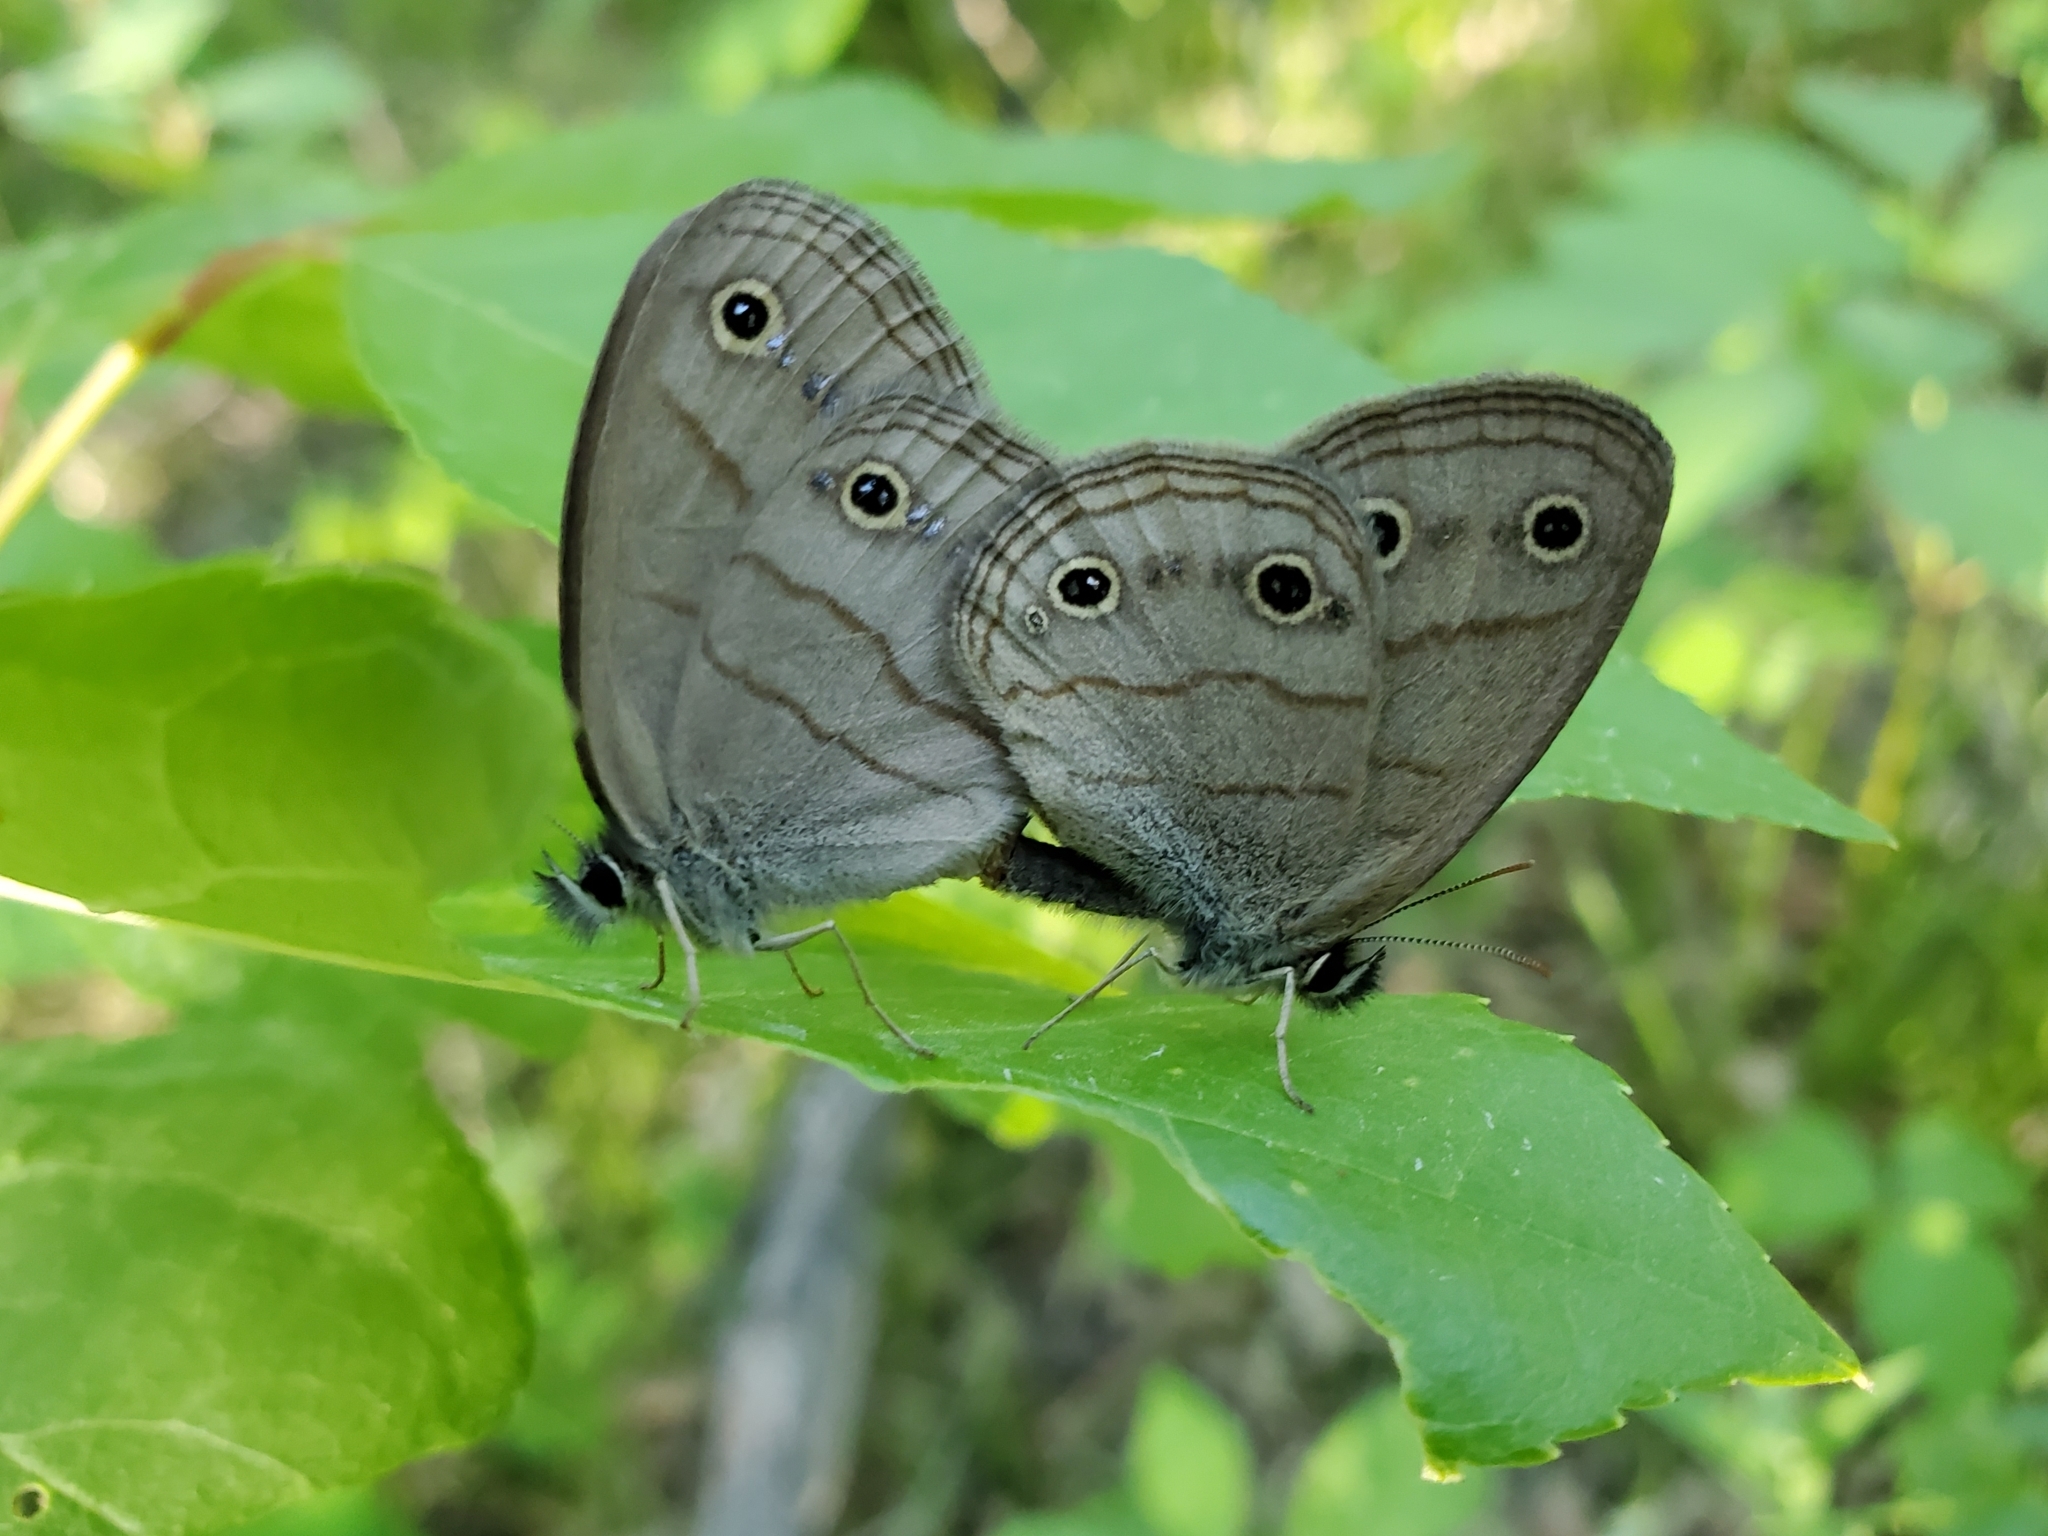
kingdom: Animalia
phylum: Arthropoda
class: Insecta
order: Lepidoptera
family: Nymphalidae
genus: Euptychia
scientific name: Euptychia cymela
